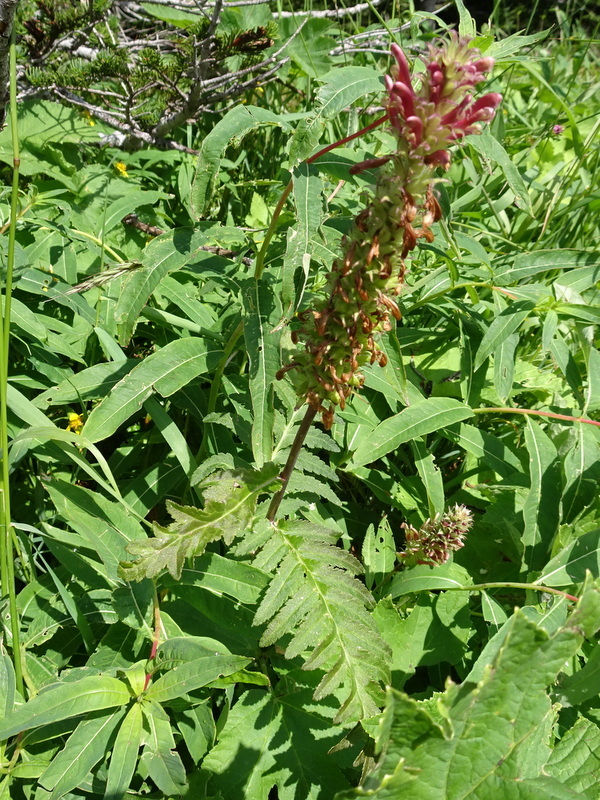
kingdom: Plantae
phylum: Tracheophyta
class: Magnoliopsida
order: Lamiales
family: Orobanchaceae
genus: Pedicularis
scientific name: Pedicularis bracteosa
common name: Bracted lousewort
